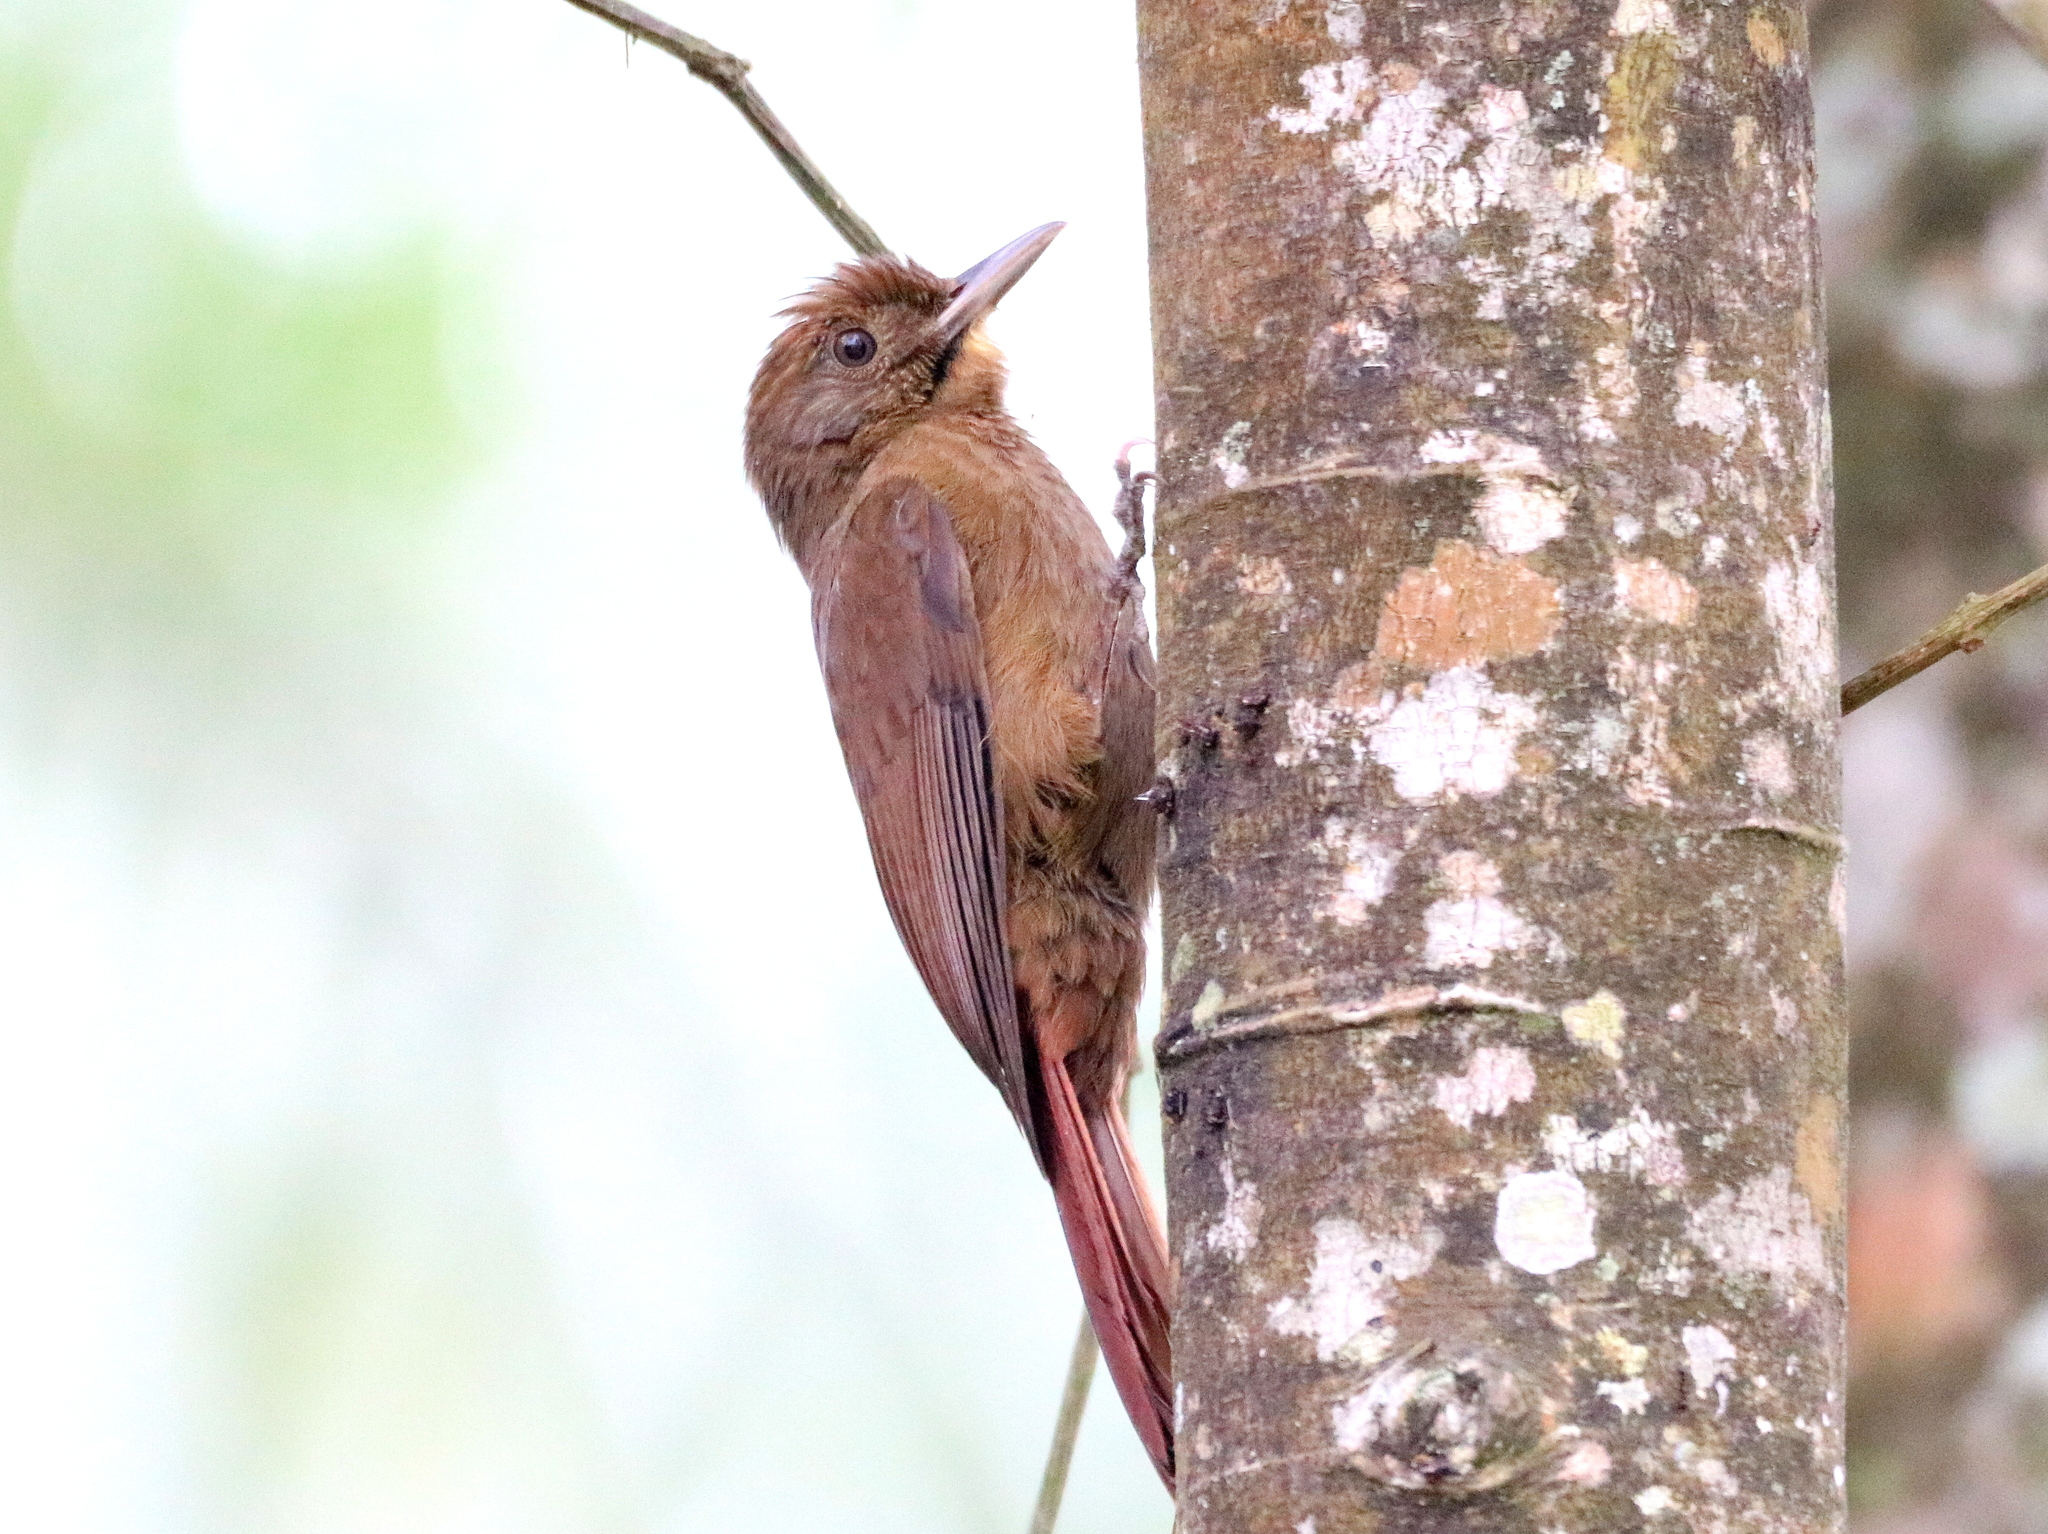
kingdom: Animalia
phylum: Chordata
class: Aves
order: Passeriformes
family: Furnariidae
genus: Dendrocincla
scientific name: Dendrocincla fuliginosa
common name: Plain-brown woodcreeper
